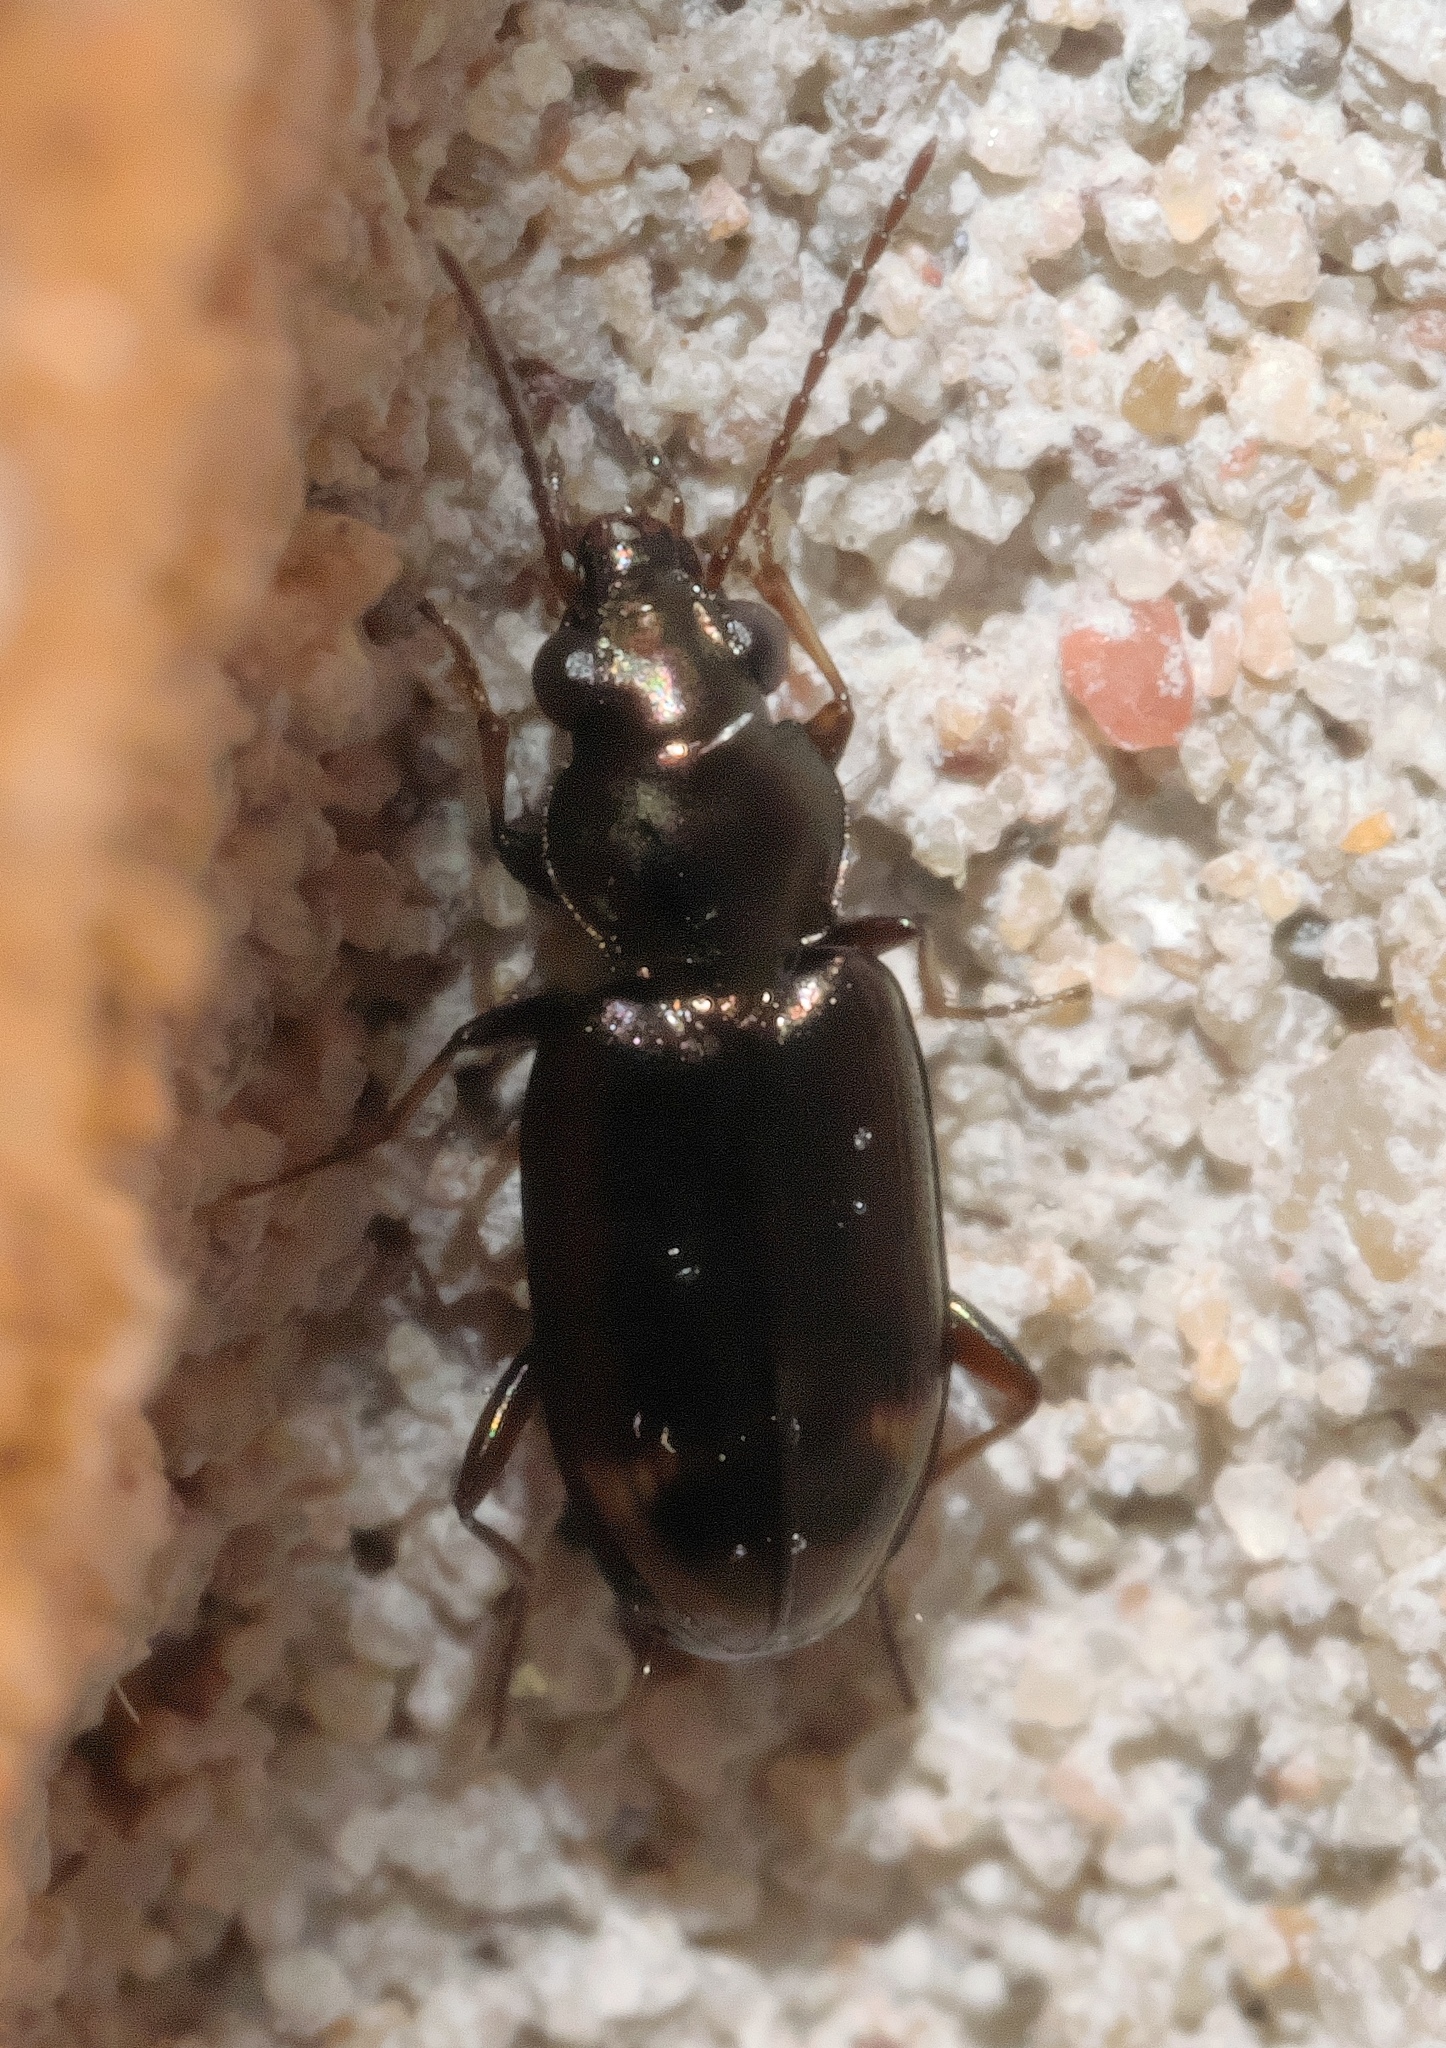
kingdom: Animalia
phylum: Arthropoda
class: Insecta
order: Coleoptera
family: Carabidae
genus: Bembidion
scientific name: Bembidion rapidum
